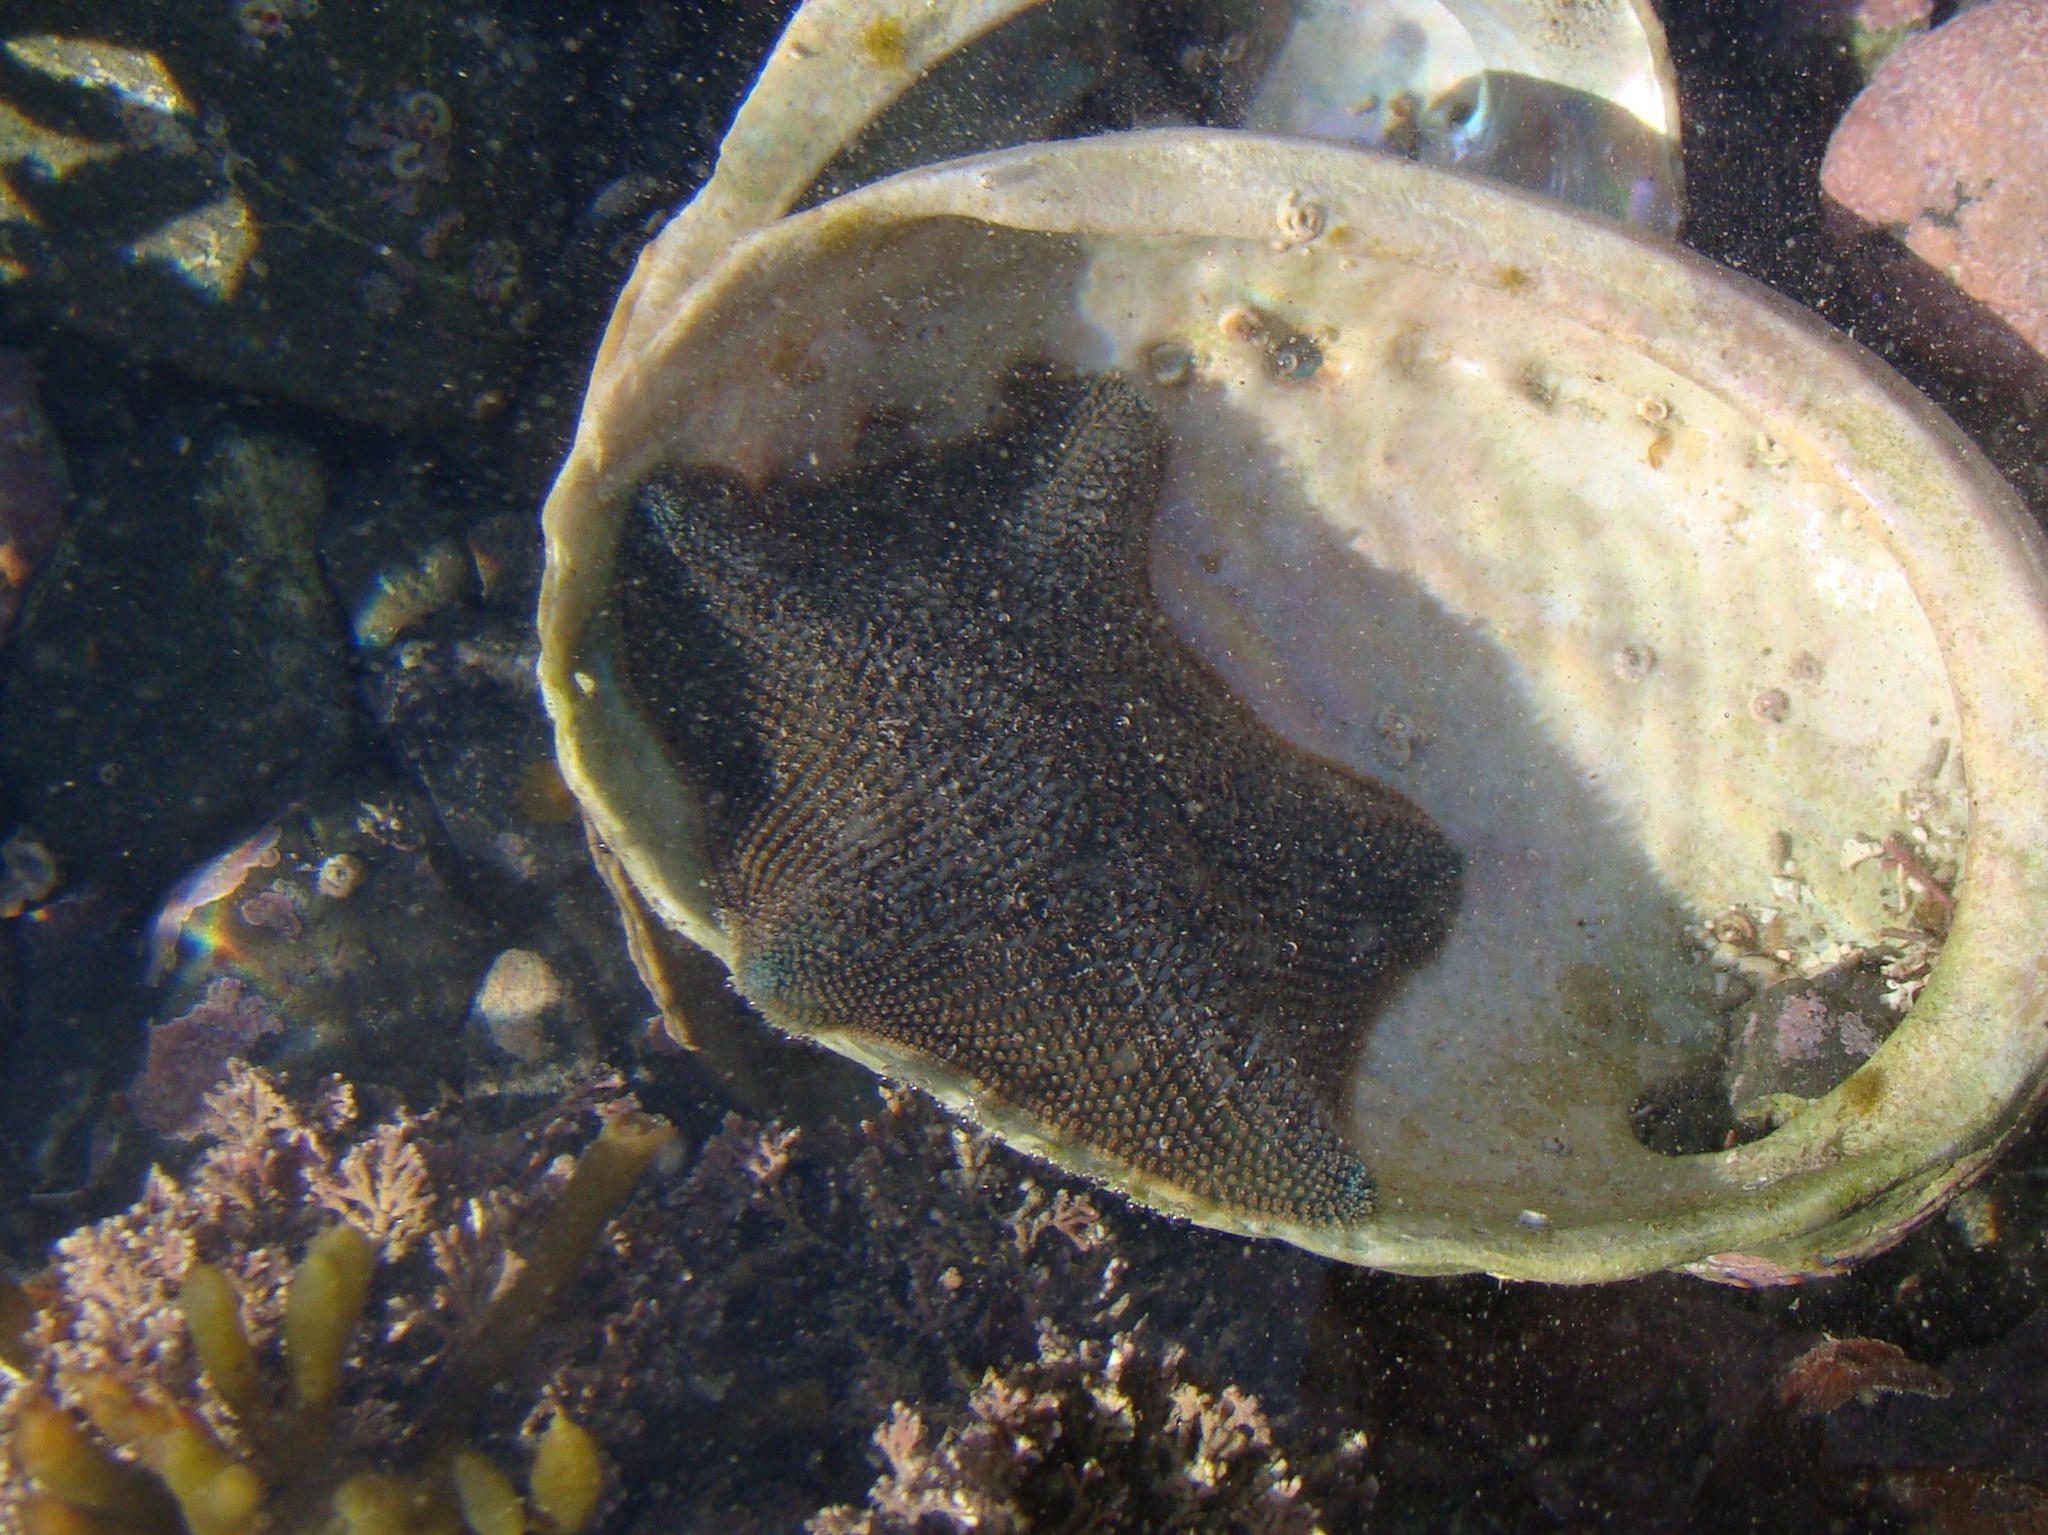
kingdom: Animalia
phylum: Echinodermata
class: Asteroidea
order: Valvatida
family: Asterinidae
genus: Patiriella
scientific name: Patiriella regularis
